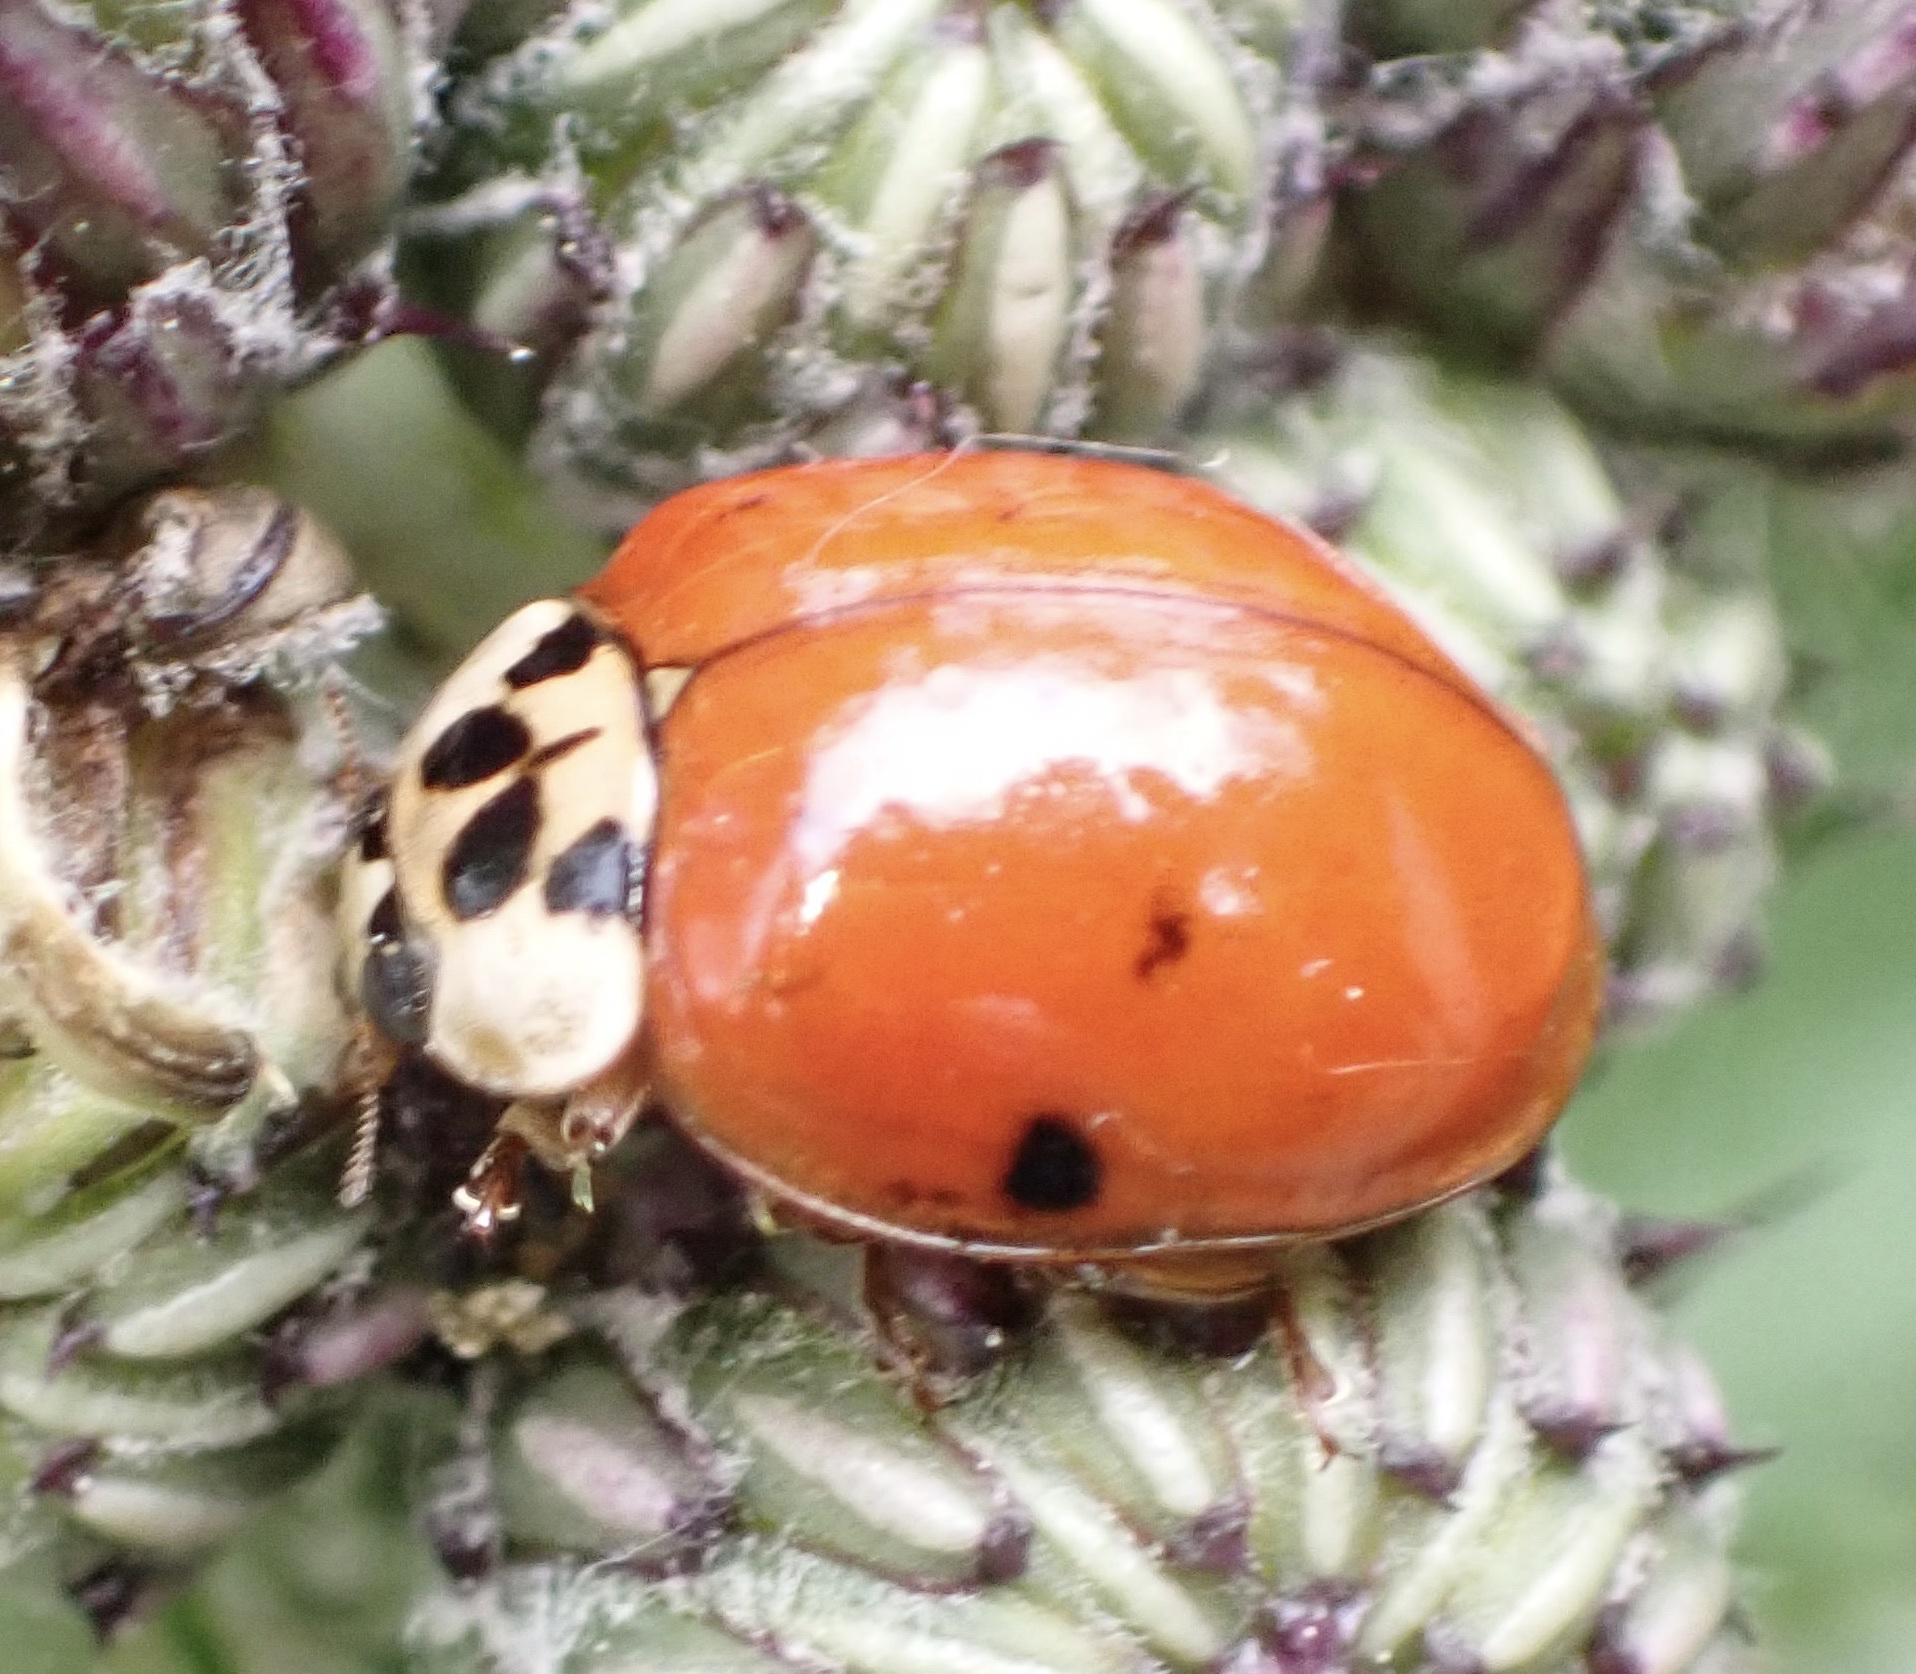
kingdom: Animalia
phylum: Arthropoda
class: Insecta
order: Coleoptera
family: Coccinellidae
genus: Harmonia
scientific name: Harmonia axyridis
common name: Harlequin ladybird
